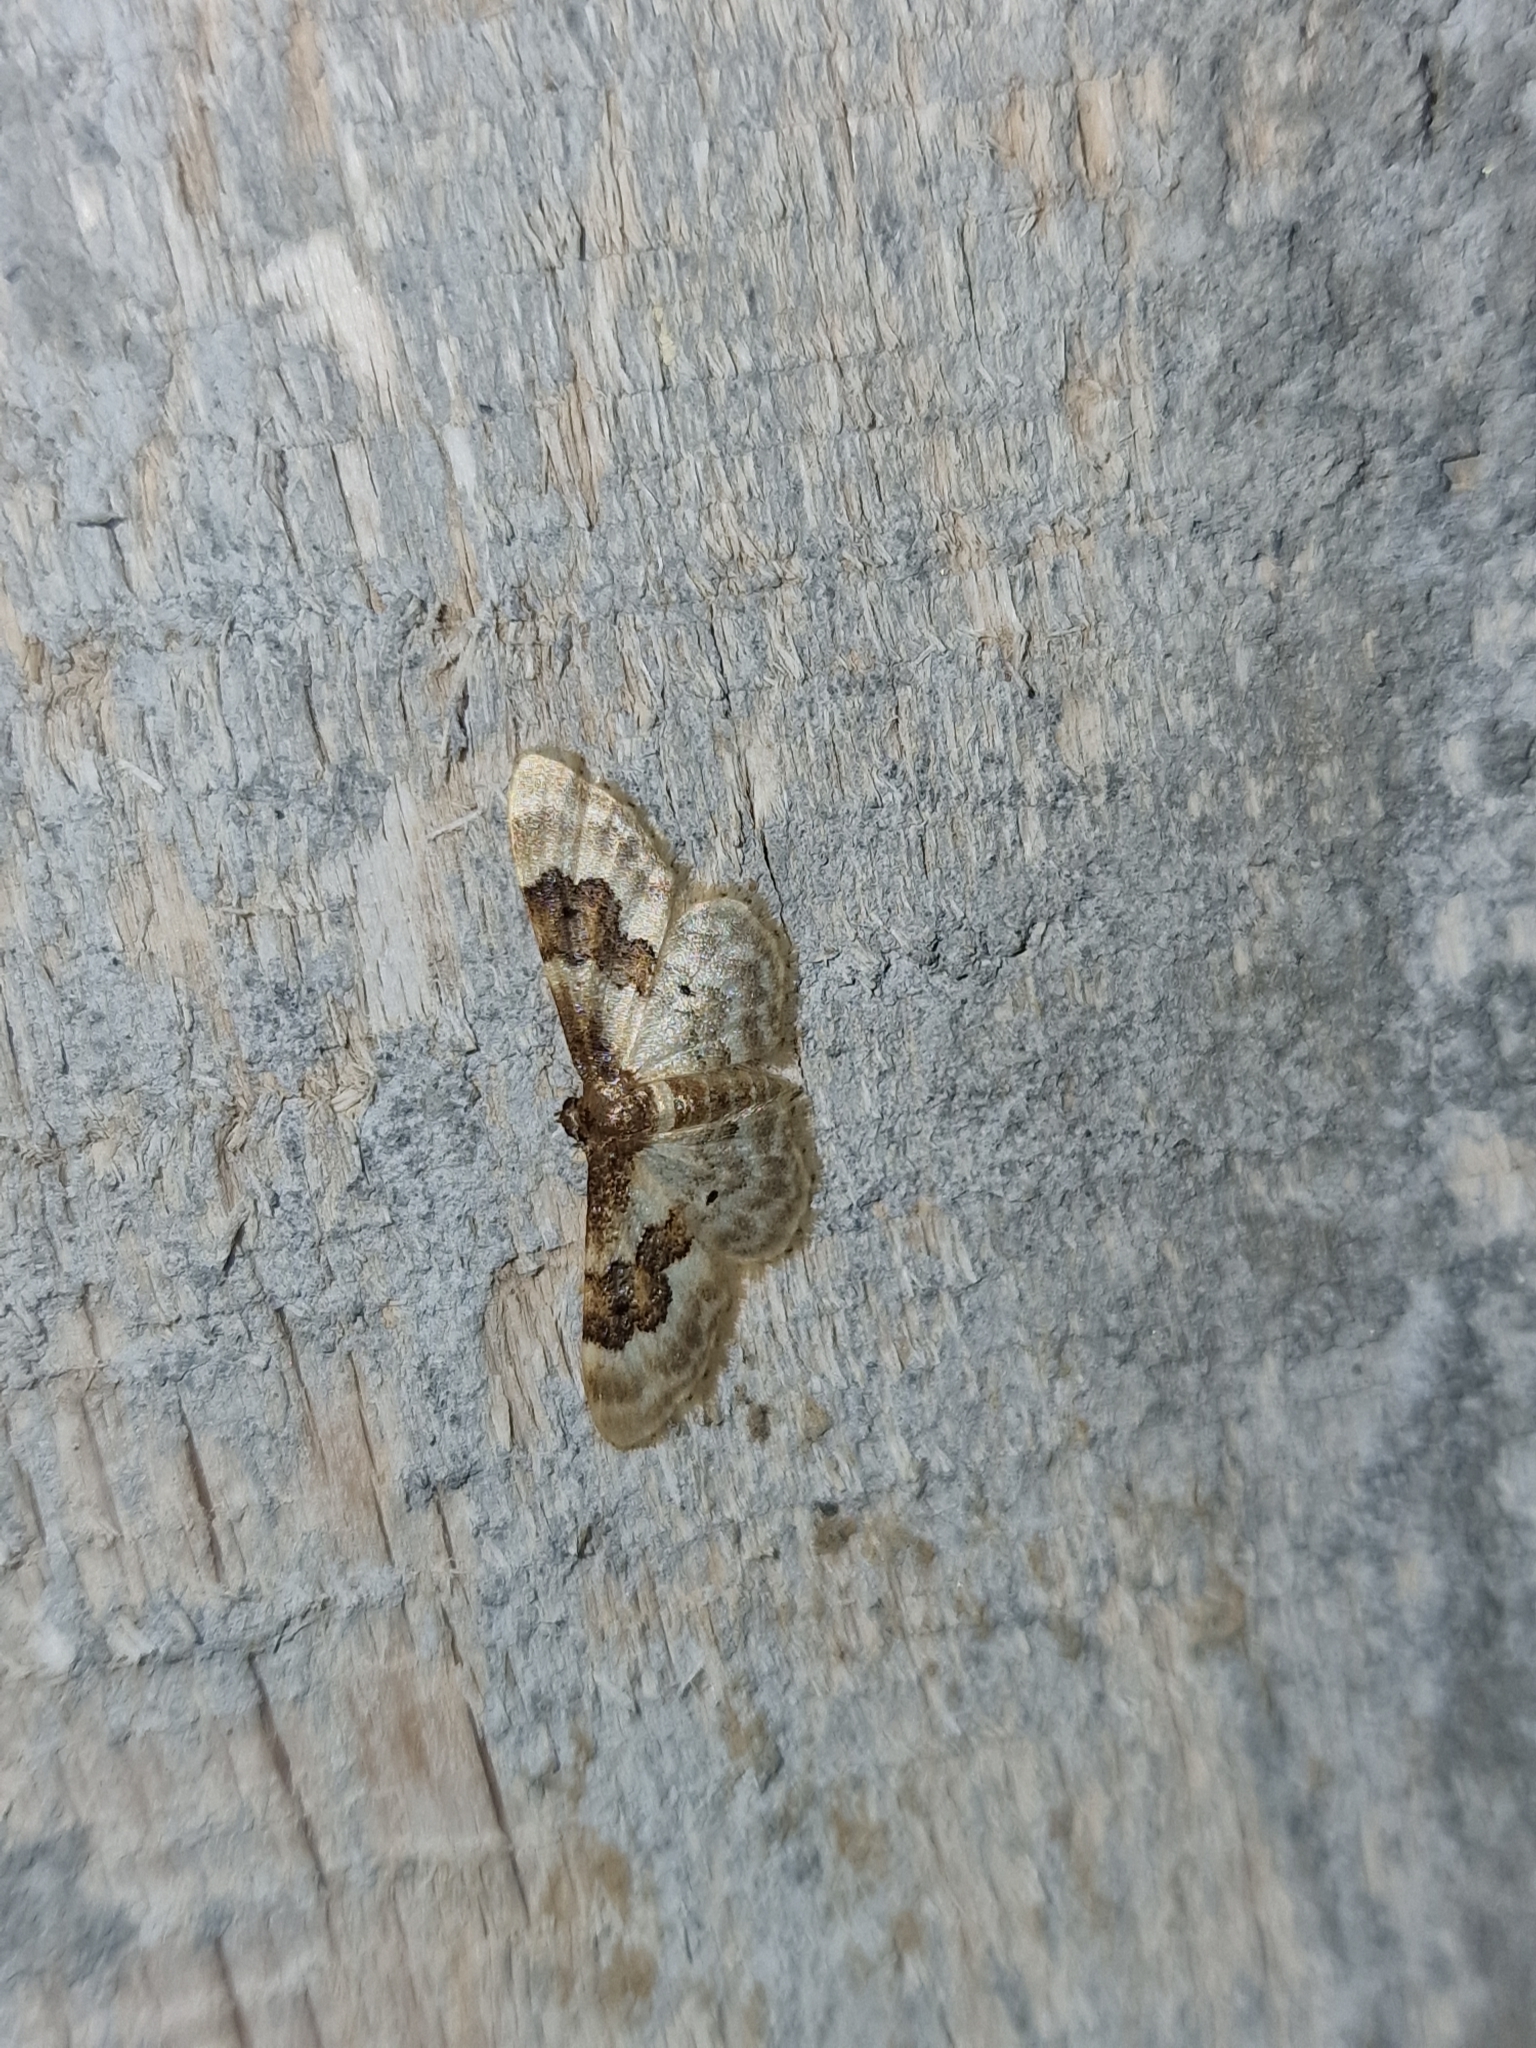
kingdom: Animalia
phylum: Arthropoda
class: Insecta
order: Lepidoptera
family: Geometridae
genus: Idaea
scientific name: Idaea rusticata
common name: Least carpet
